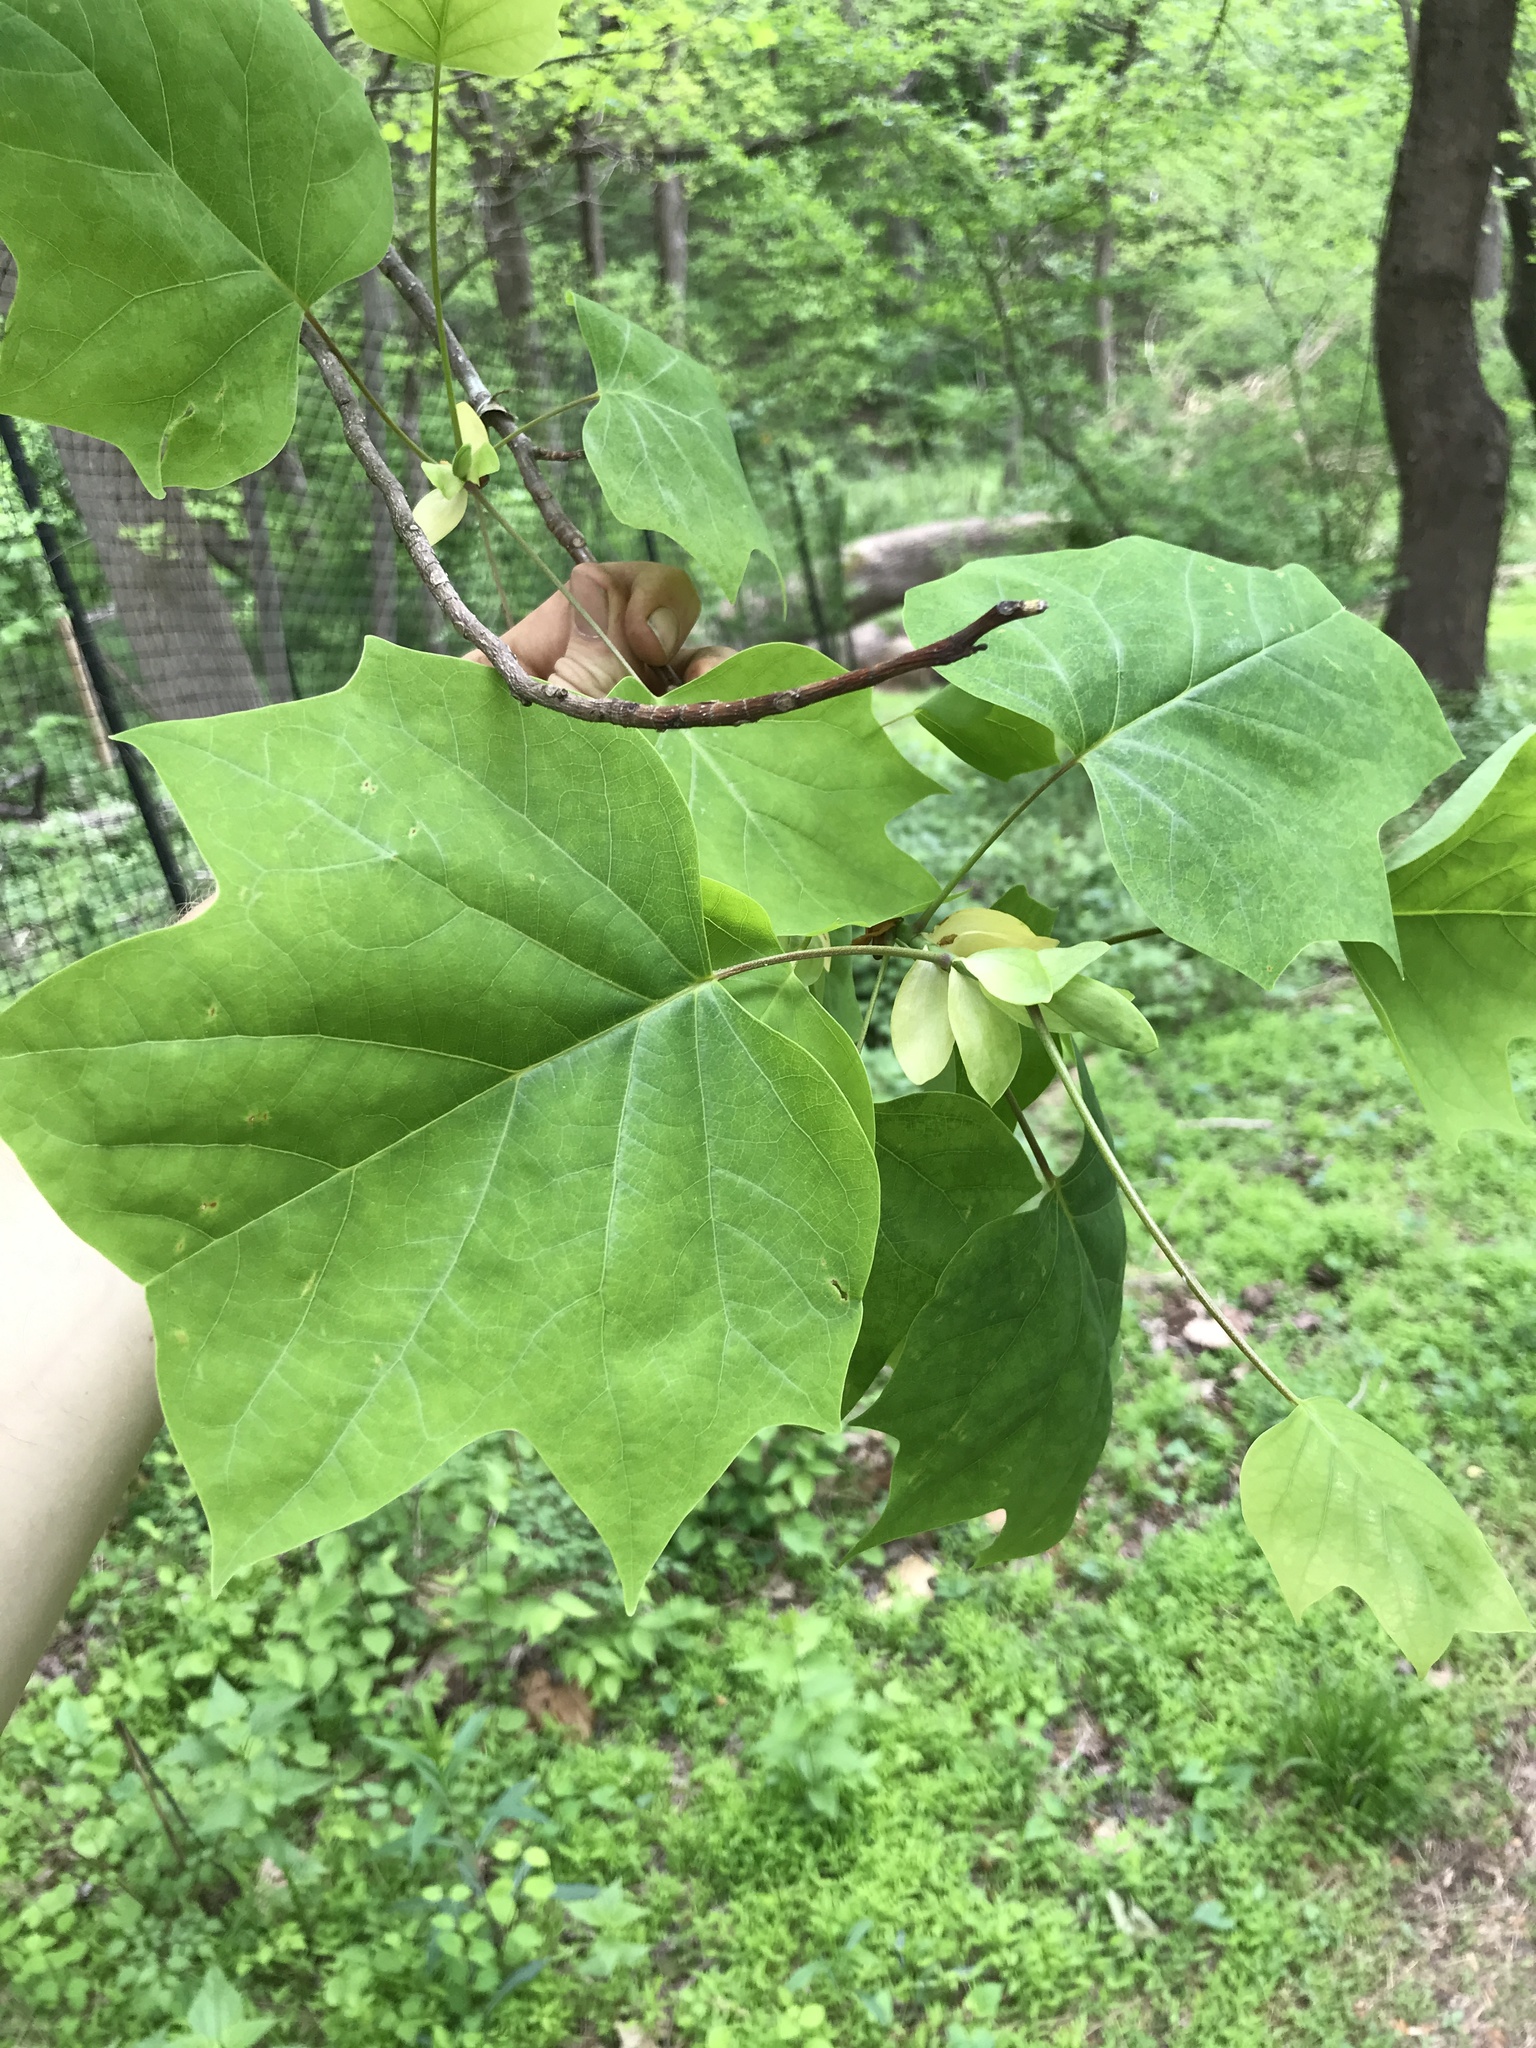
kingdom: Plantae
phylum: Tracheophyta
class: Magnoliopsida
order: Magnoliales
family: Magnoliaceae
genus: Liriodendron
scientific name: Liriodendron tulipifera
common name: Tulip tree
